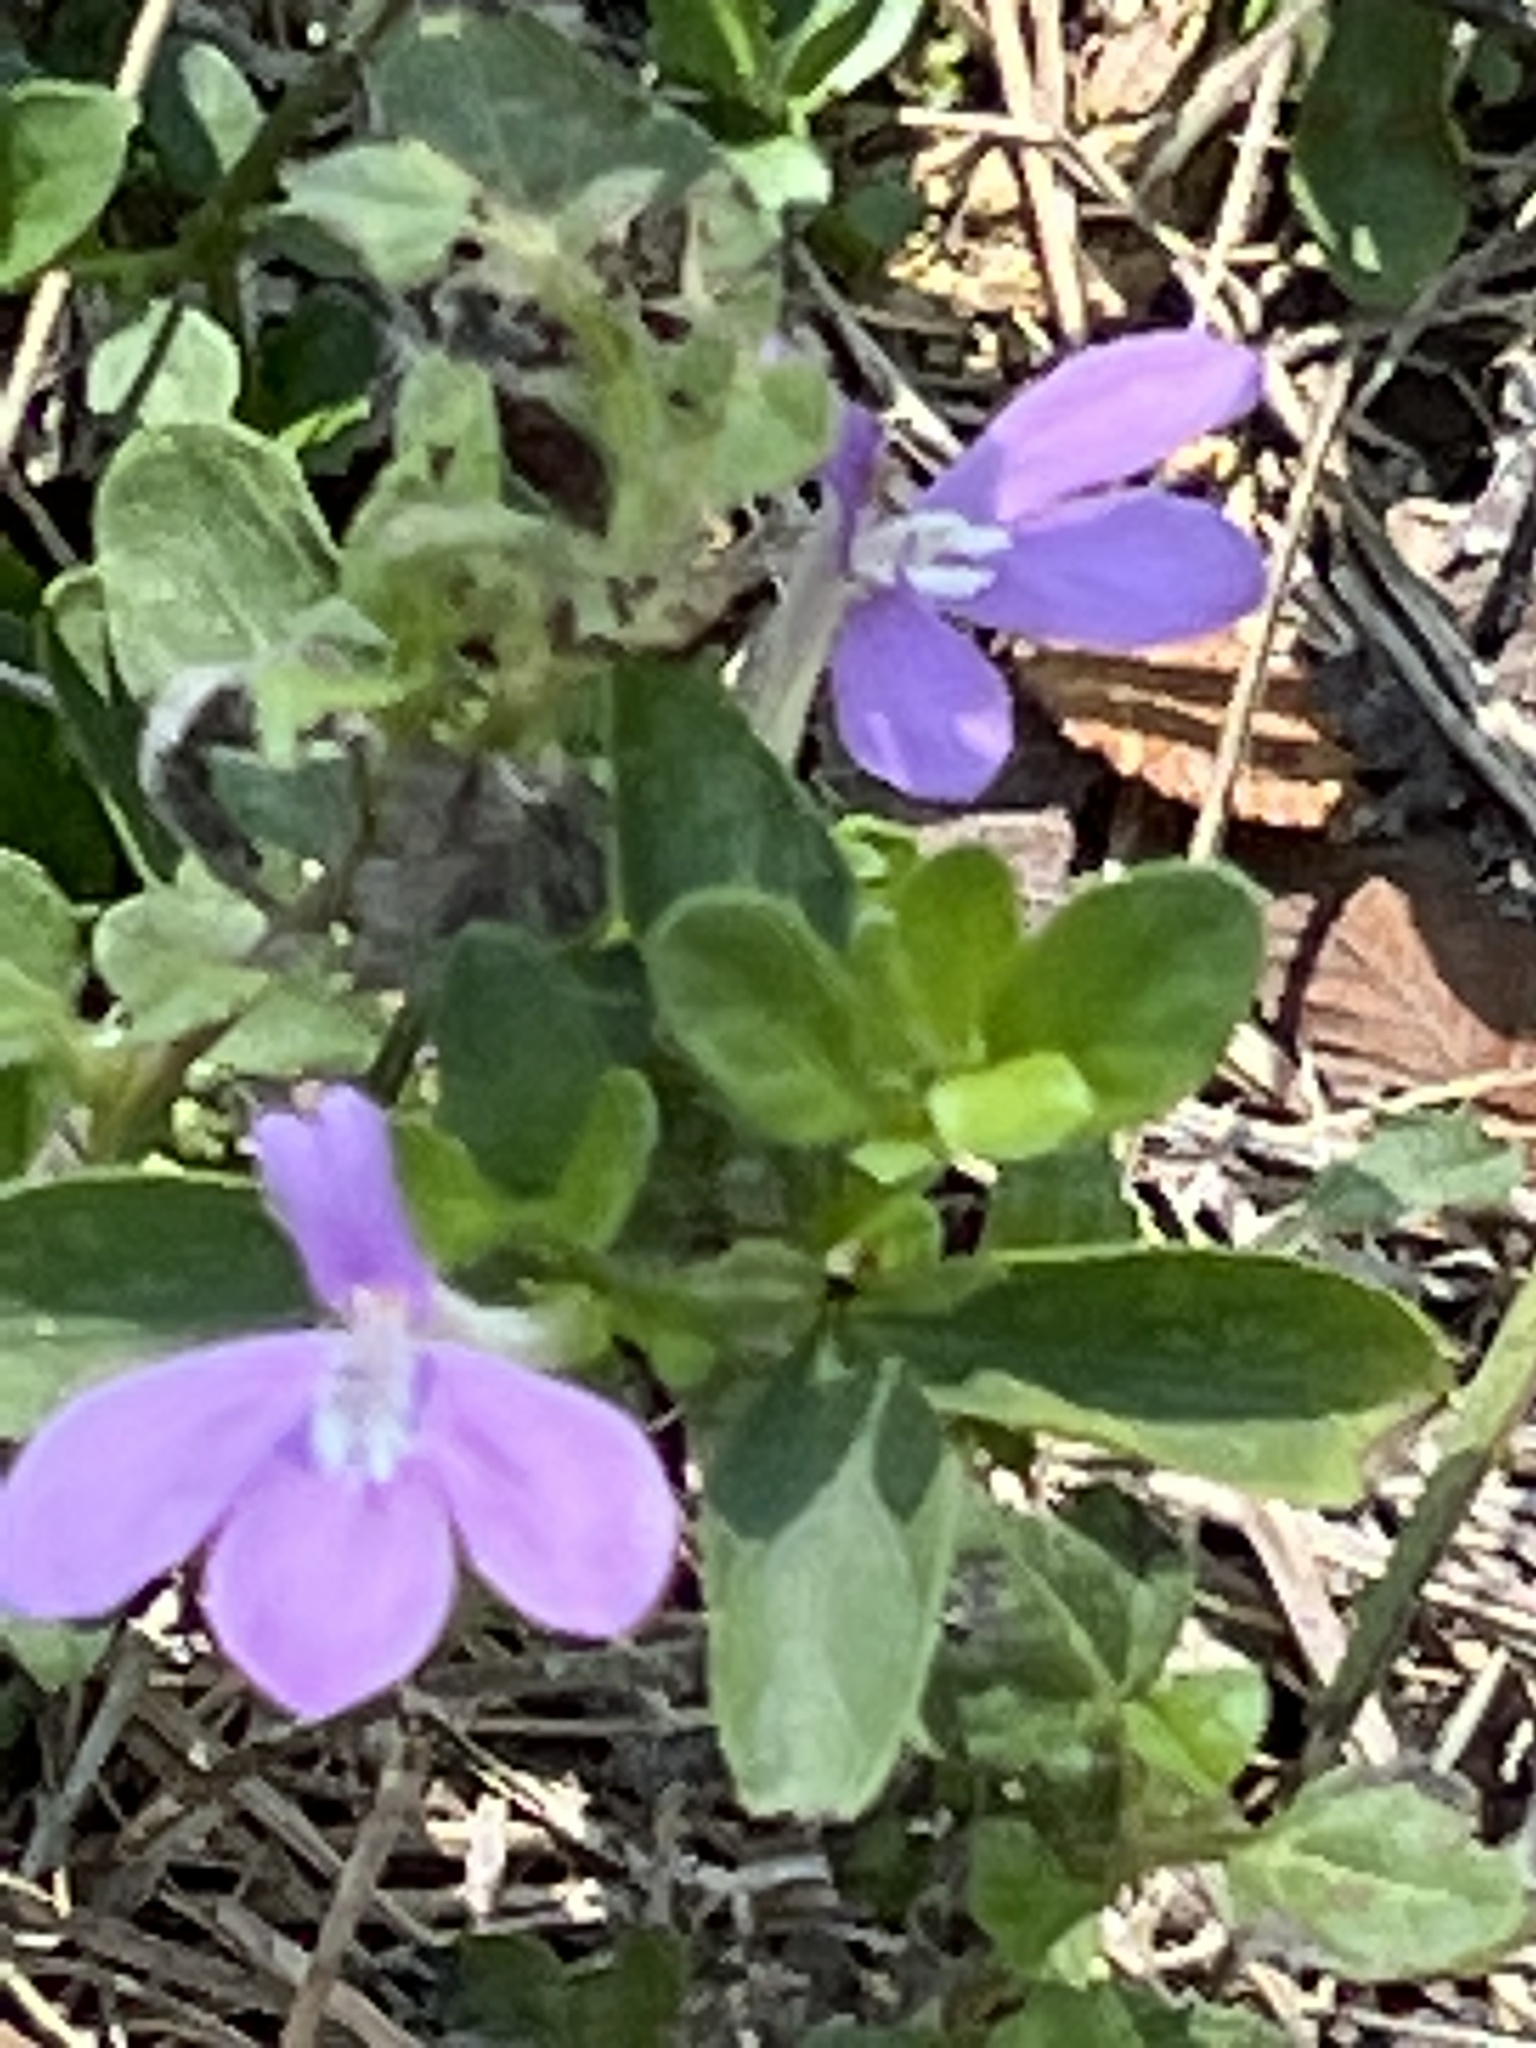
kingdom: Plantae
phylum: Tracheophyta
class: Magnoliopsida
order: Lamiales
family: Acanthaceae
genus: Justicia
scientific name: Justicia pilosella
